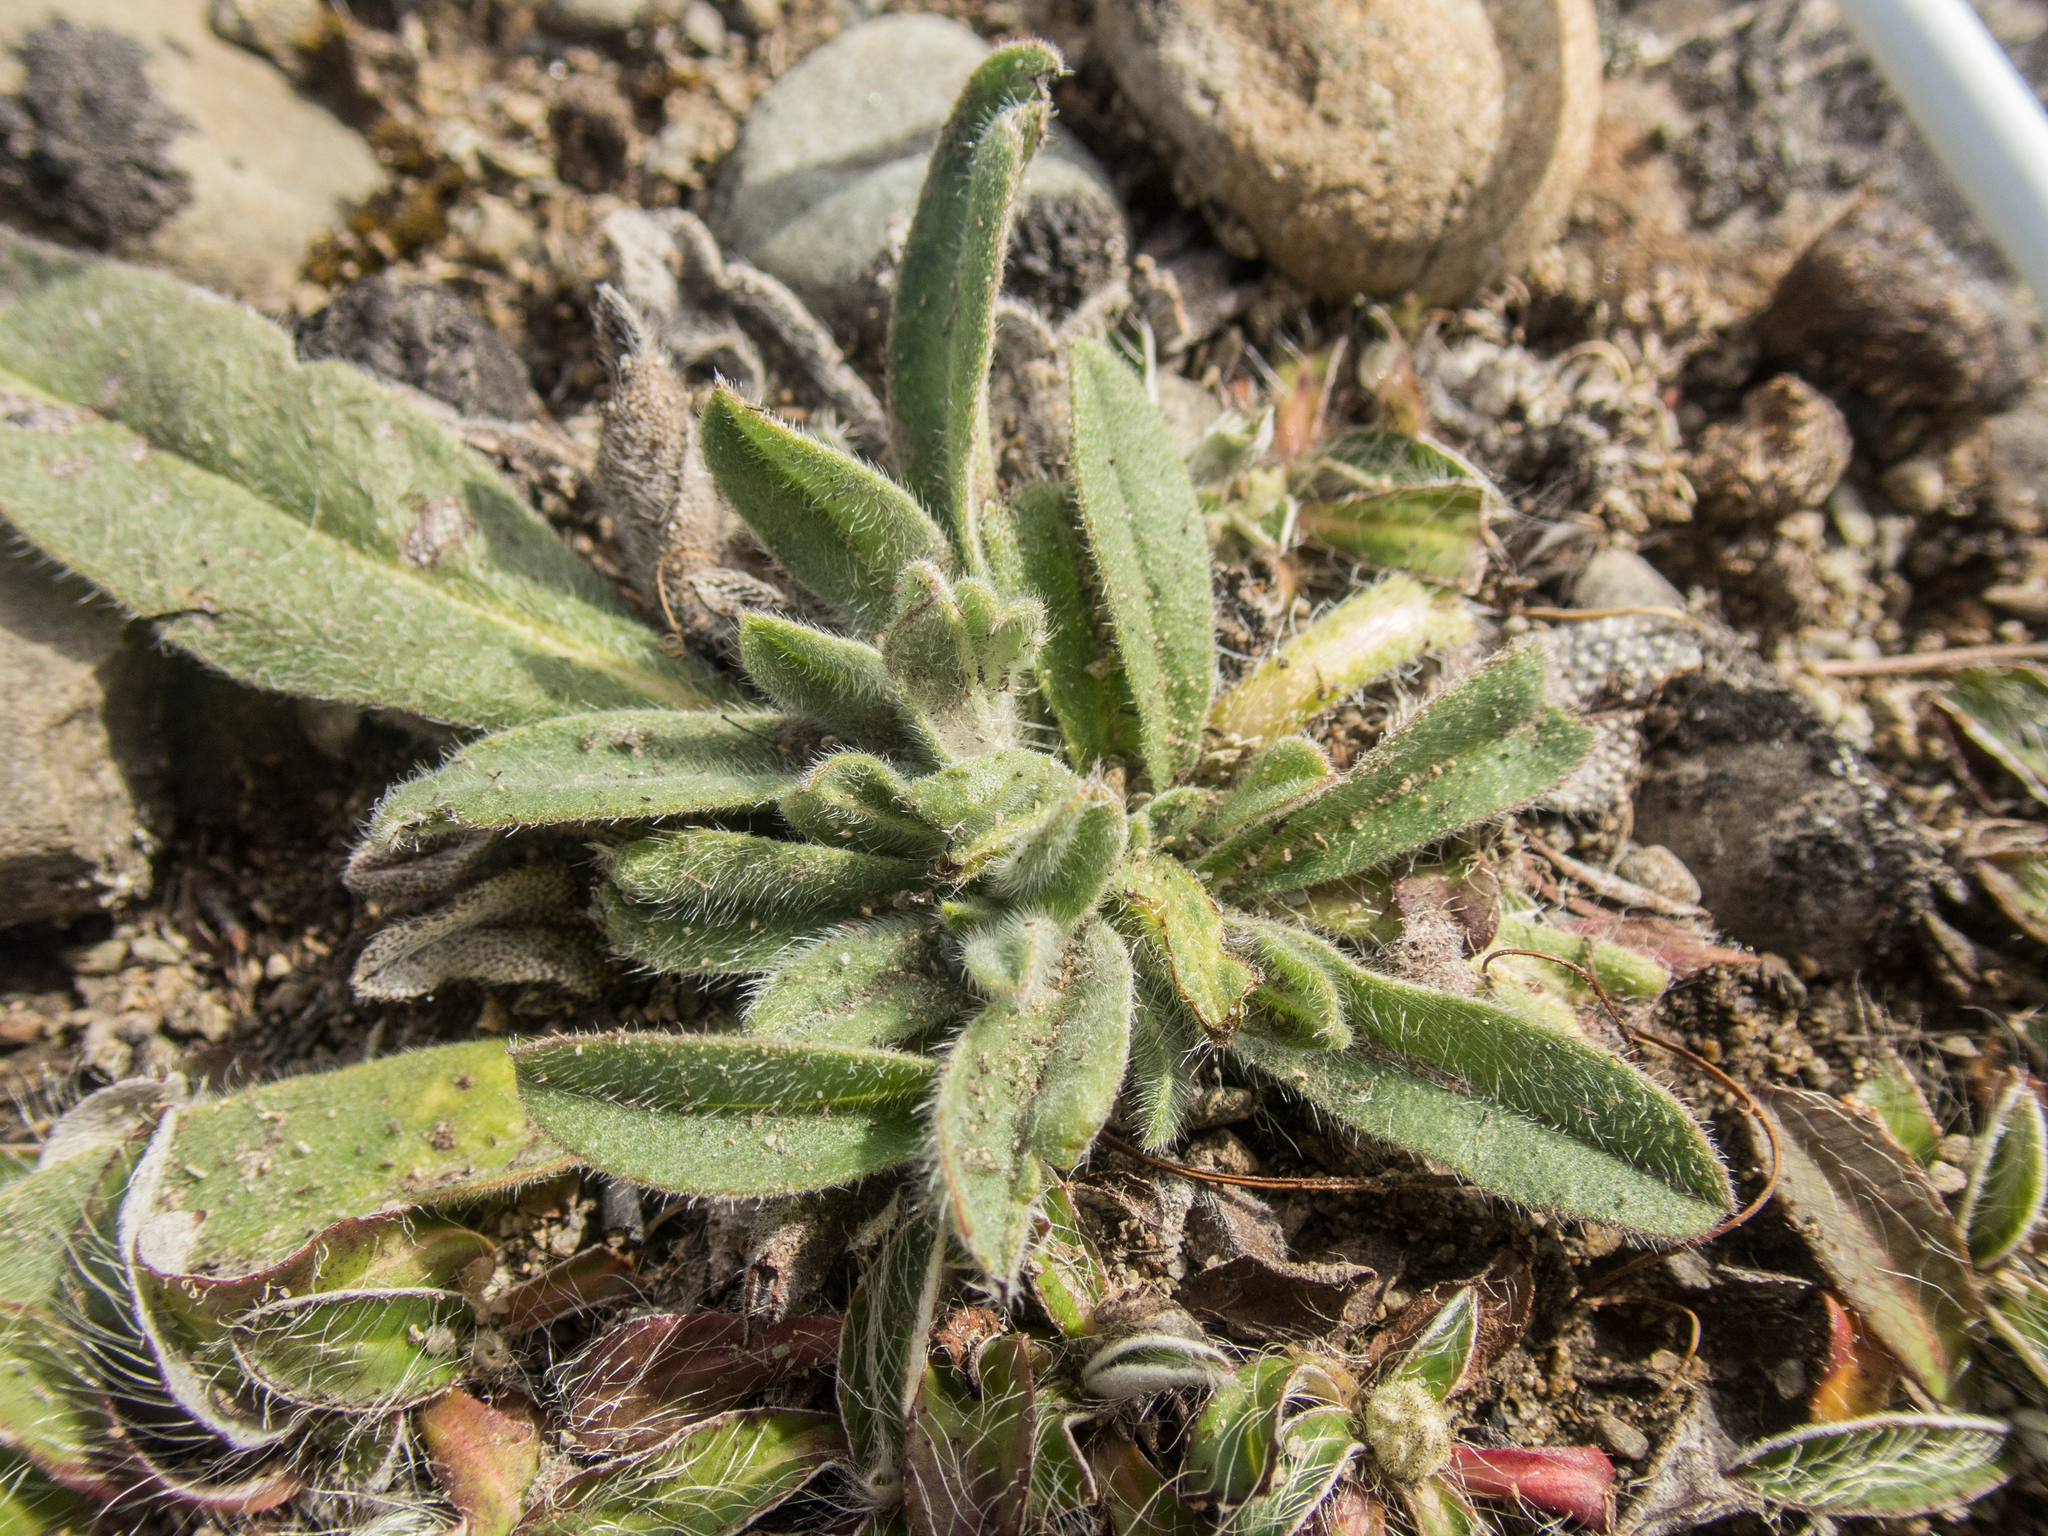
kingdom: Plantae
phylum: Tracheophyta
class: Magnoliopsida
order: Boraginales
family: Boraginaceae
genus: Echium
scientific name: Echium vulgare
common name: Common viper's bugloss
